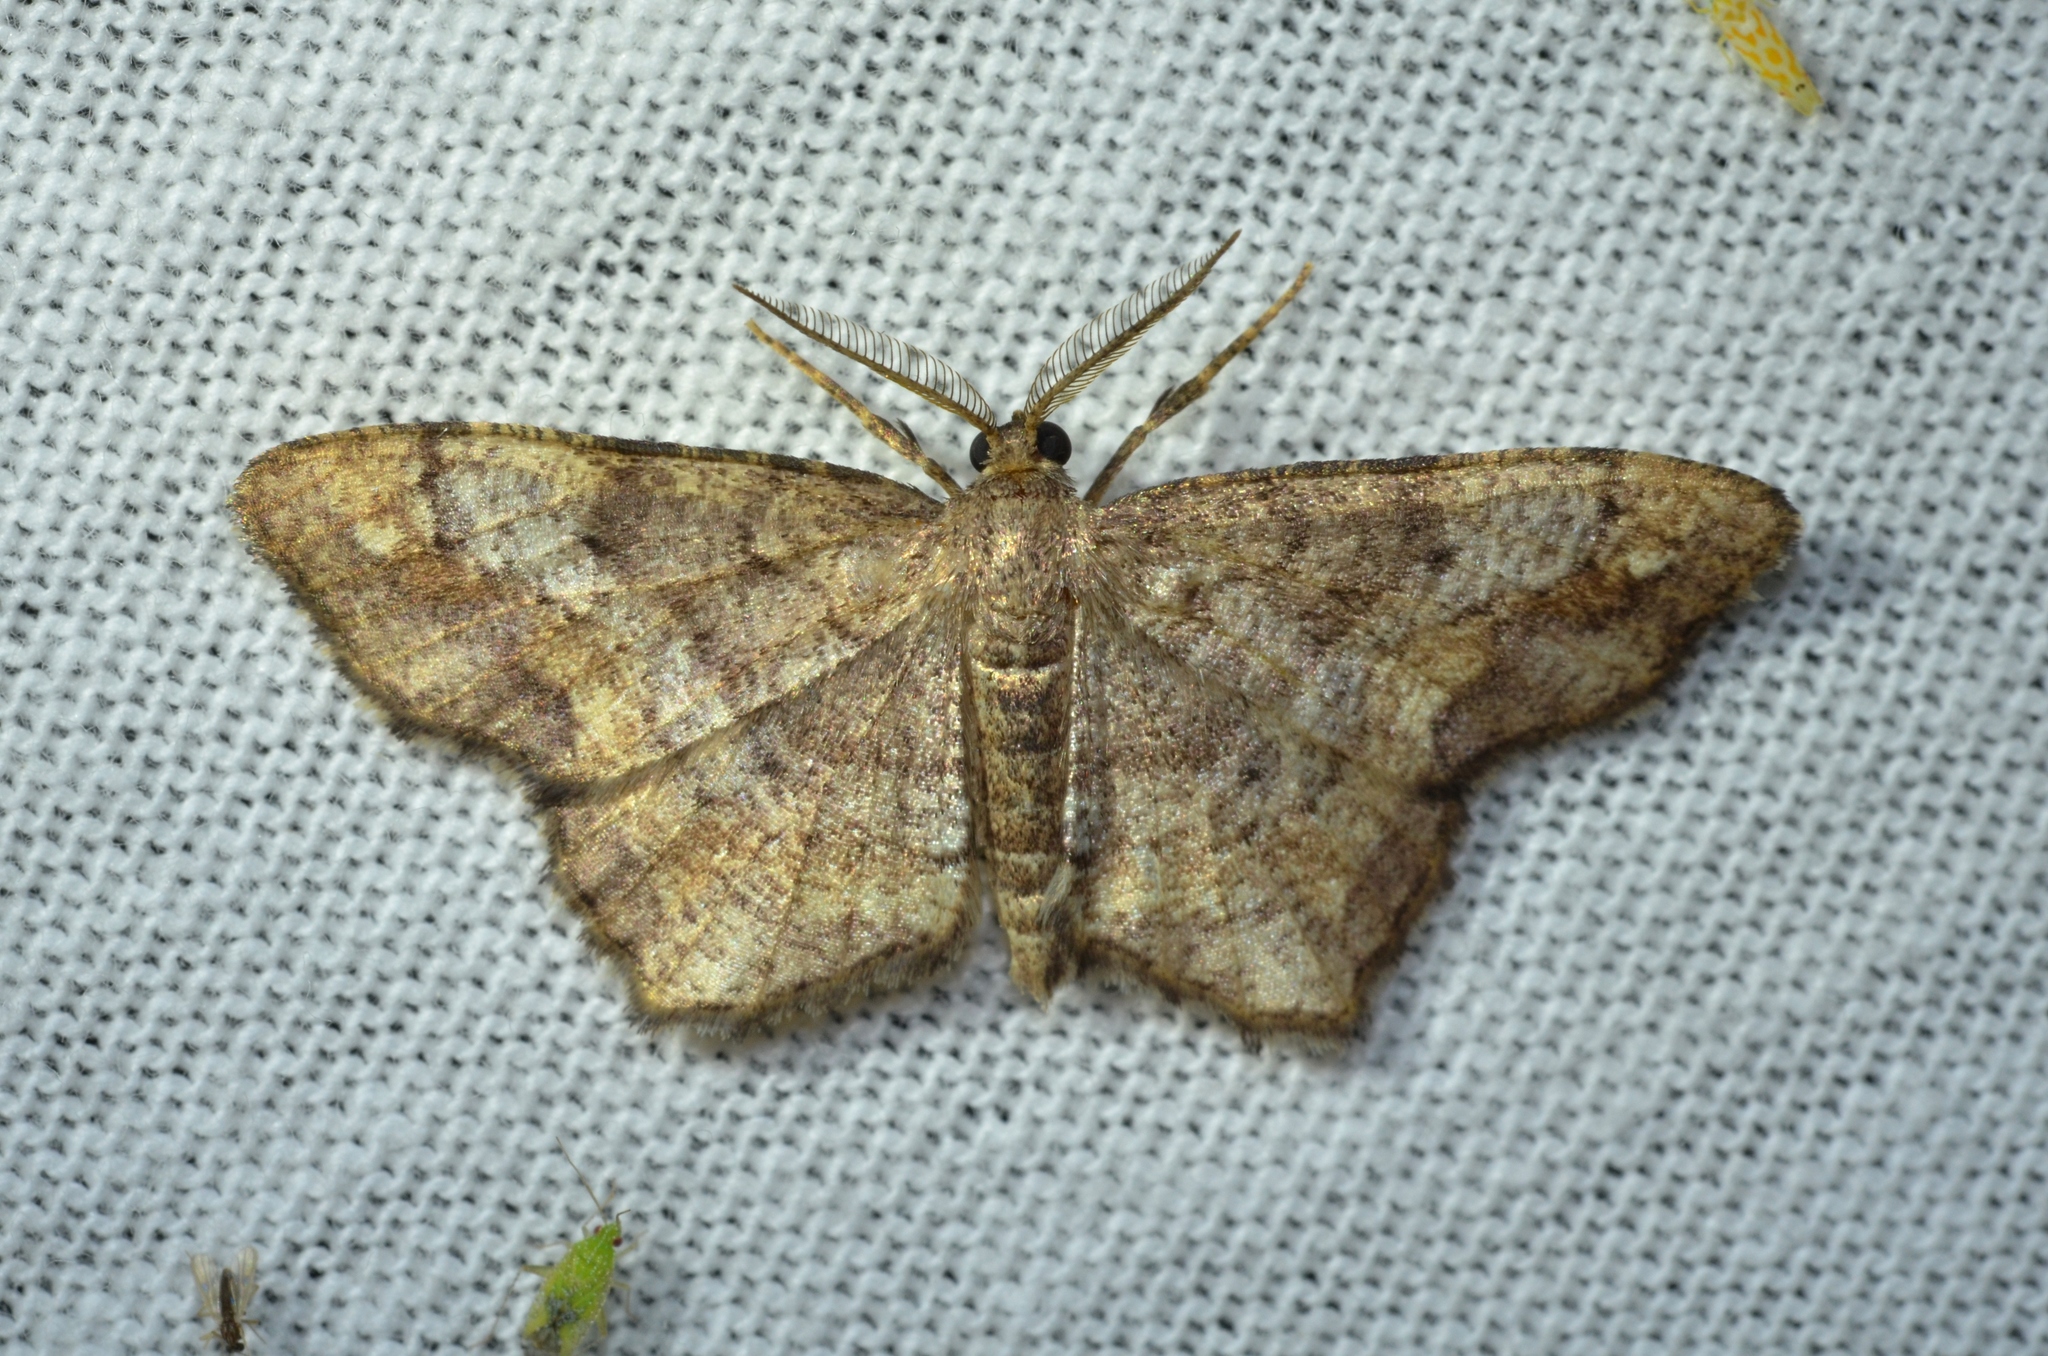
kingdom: Animalia
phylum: Arthropoda
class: Insecta
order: Lepidoptera
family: Geometridae
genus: Hypagyrtis
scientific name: Hypagyrtis unipunctata
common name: One-spotted variant
